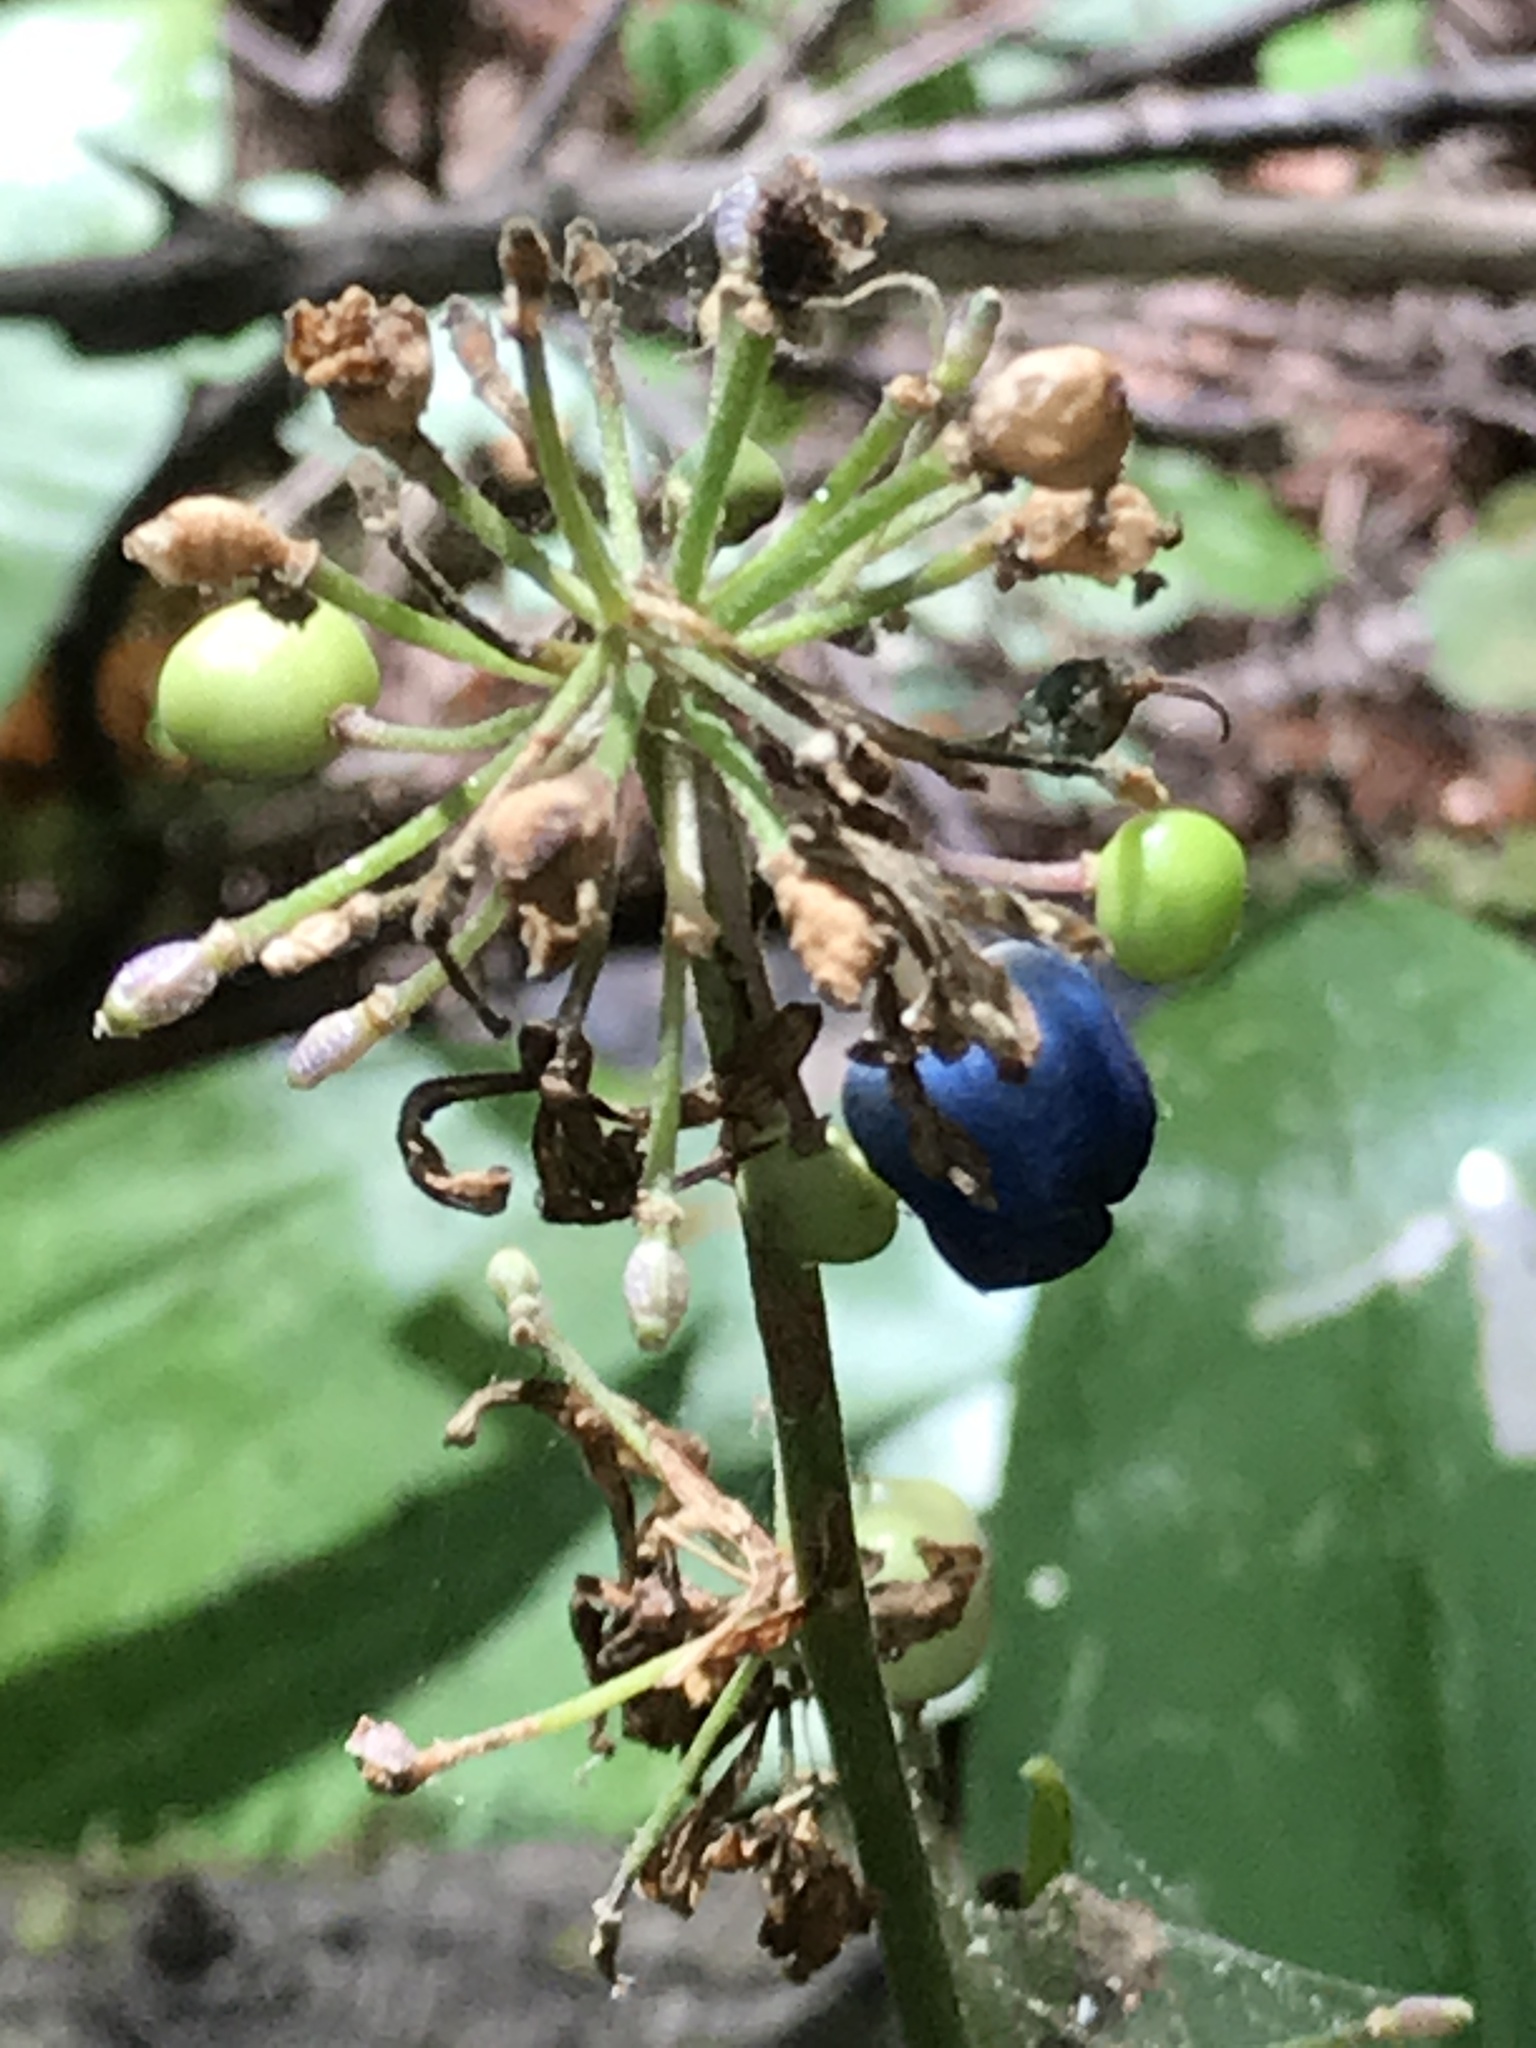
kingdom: Plantae
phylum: Tracheophyta
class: Liliopsida
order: Liliales
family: Liliaceae
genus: Clintonia
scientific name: Clintonia andrewsiana
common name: Red clintonia
